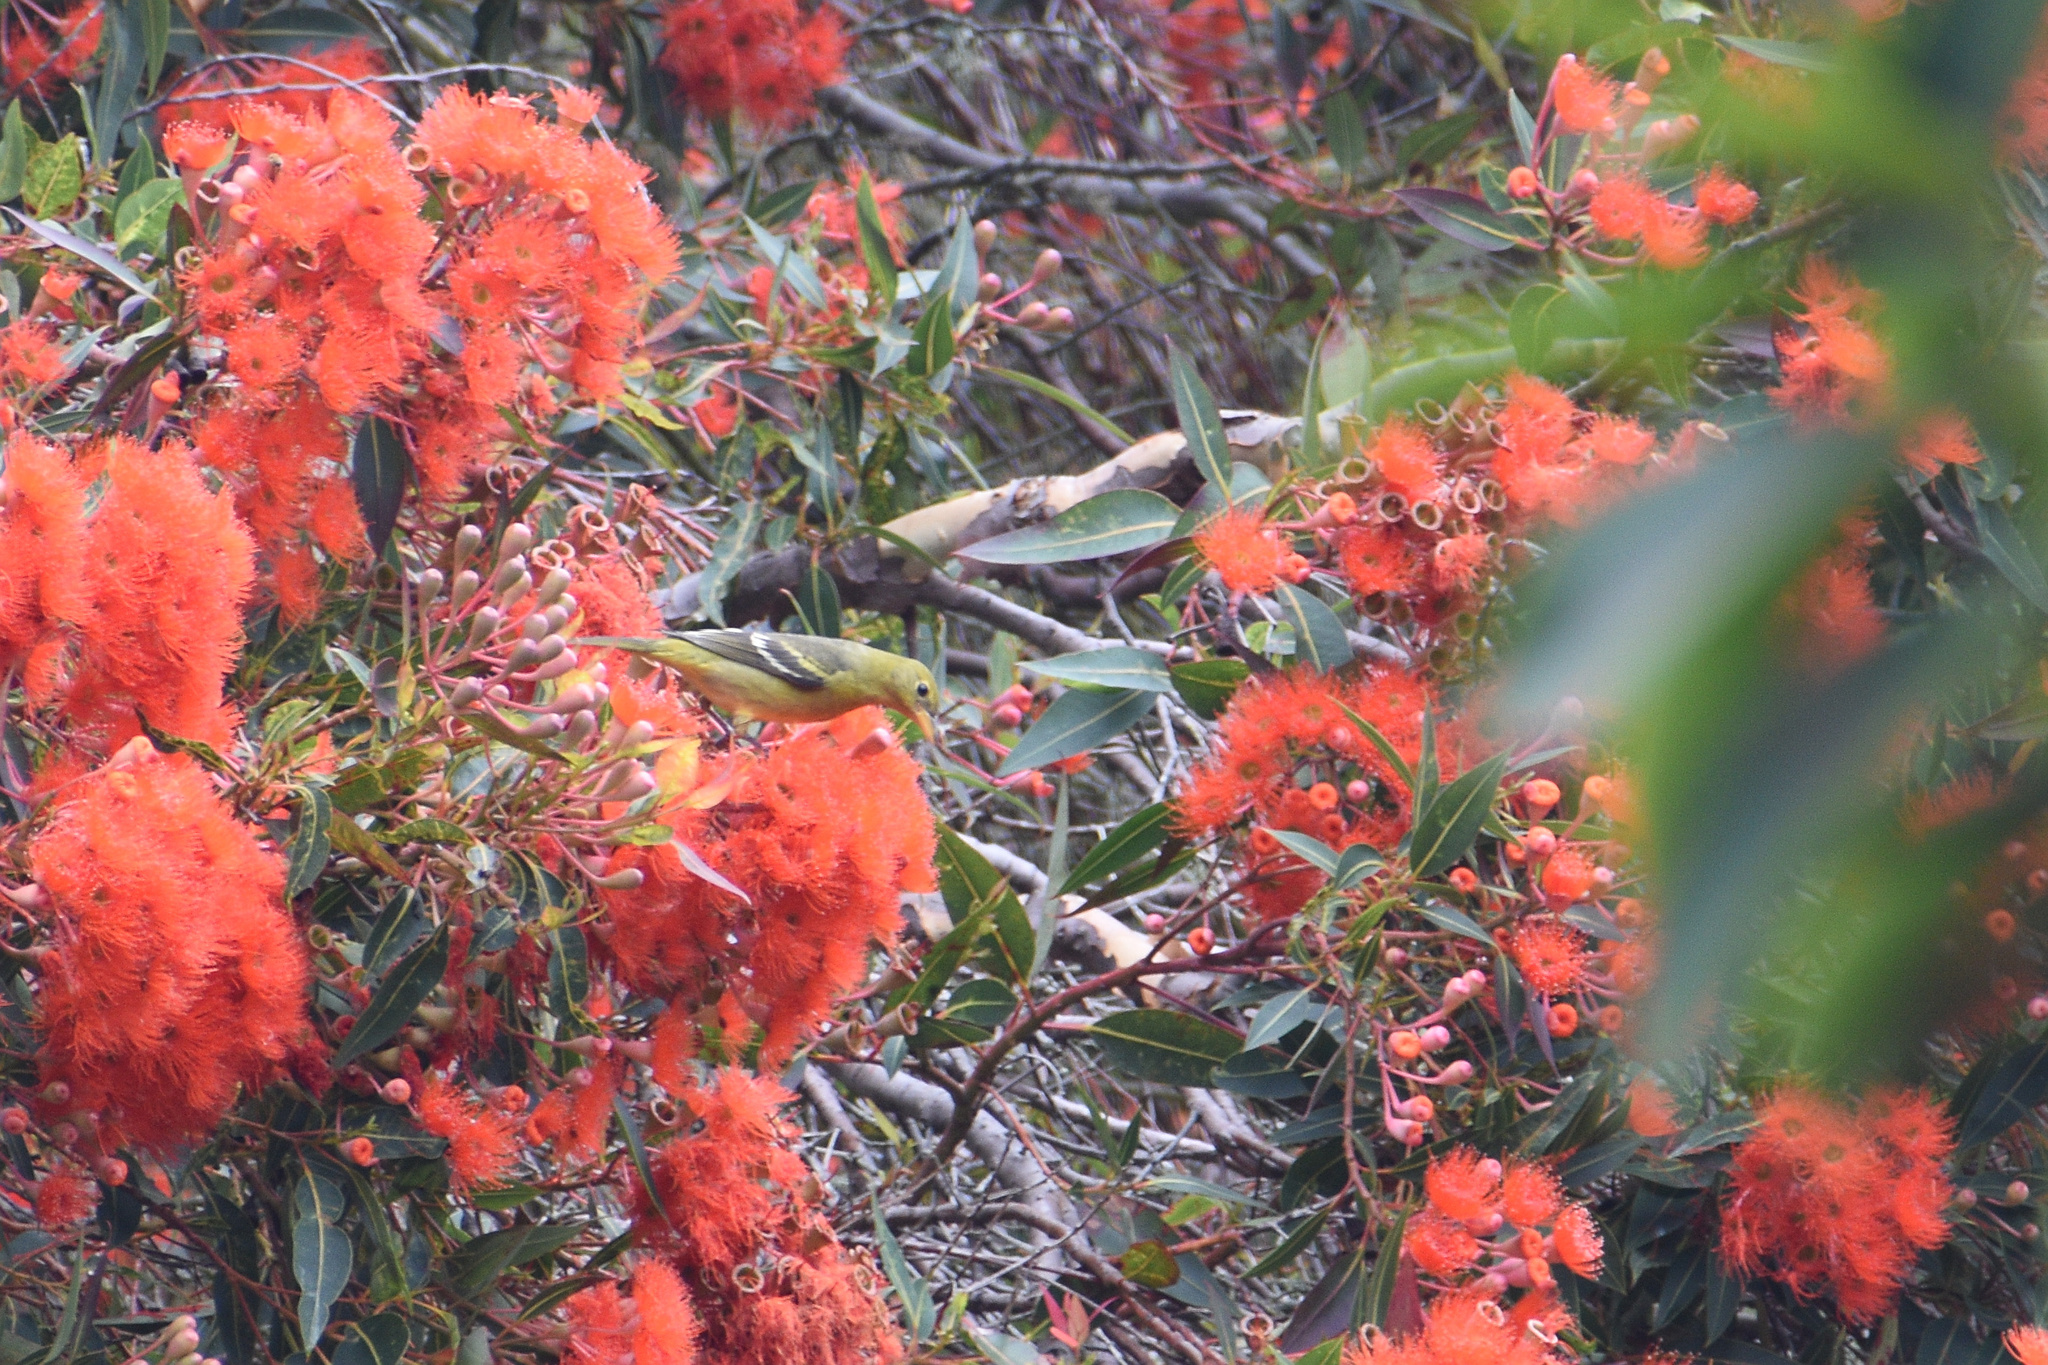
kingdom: Animalia
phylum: Chordata
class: Aves
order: Passeriformes
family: Cardinalidae
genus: Piranga
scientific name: Piranga ludoviciana
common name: Western tanager
